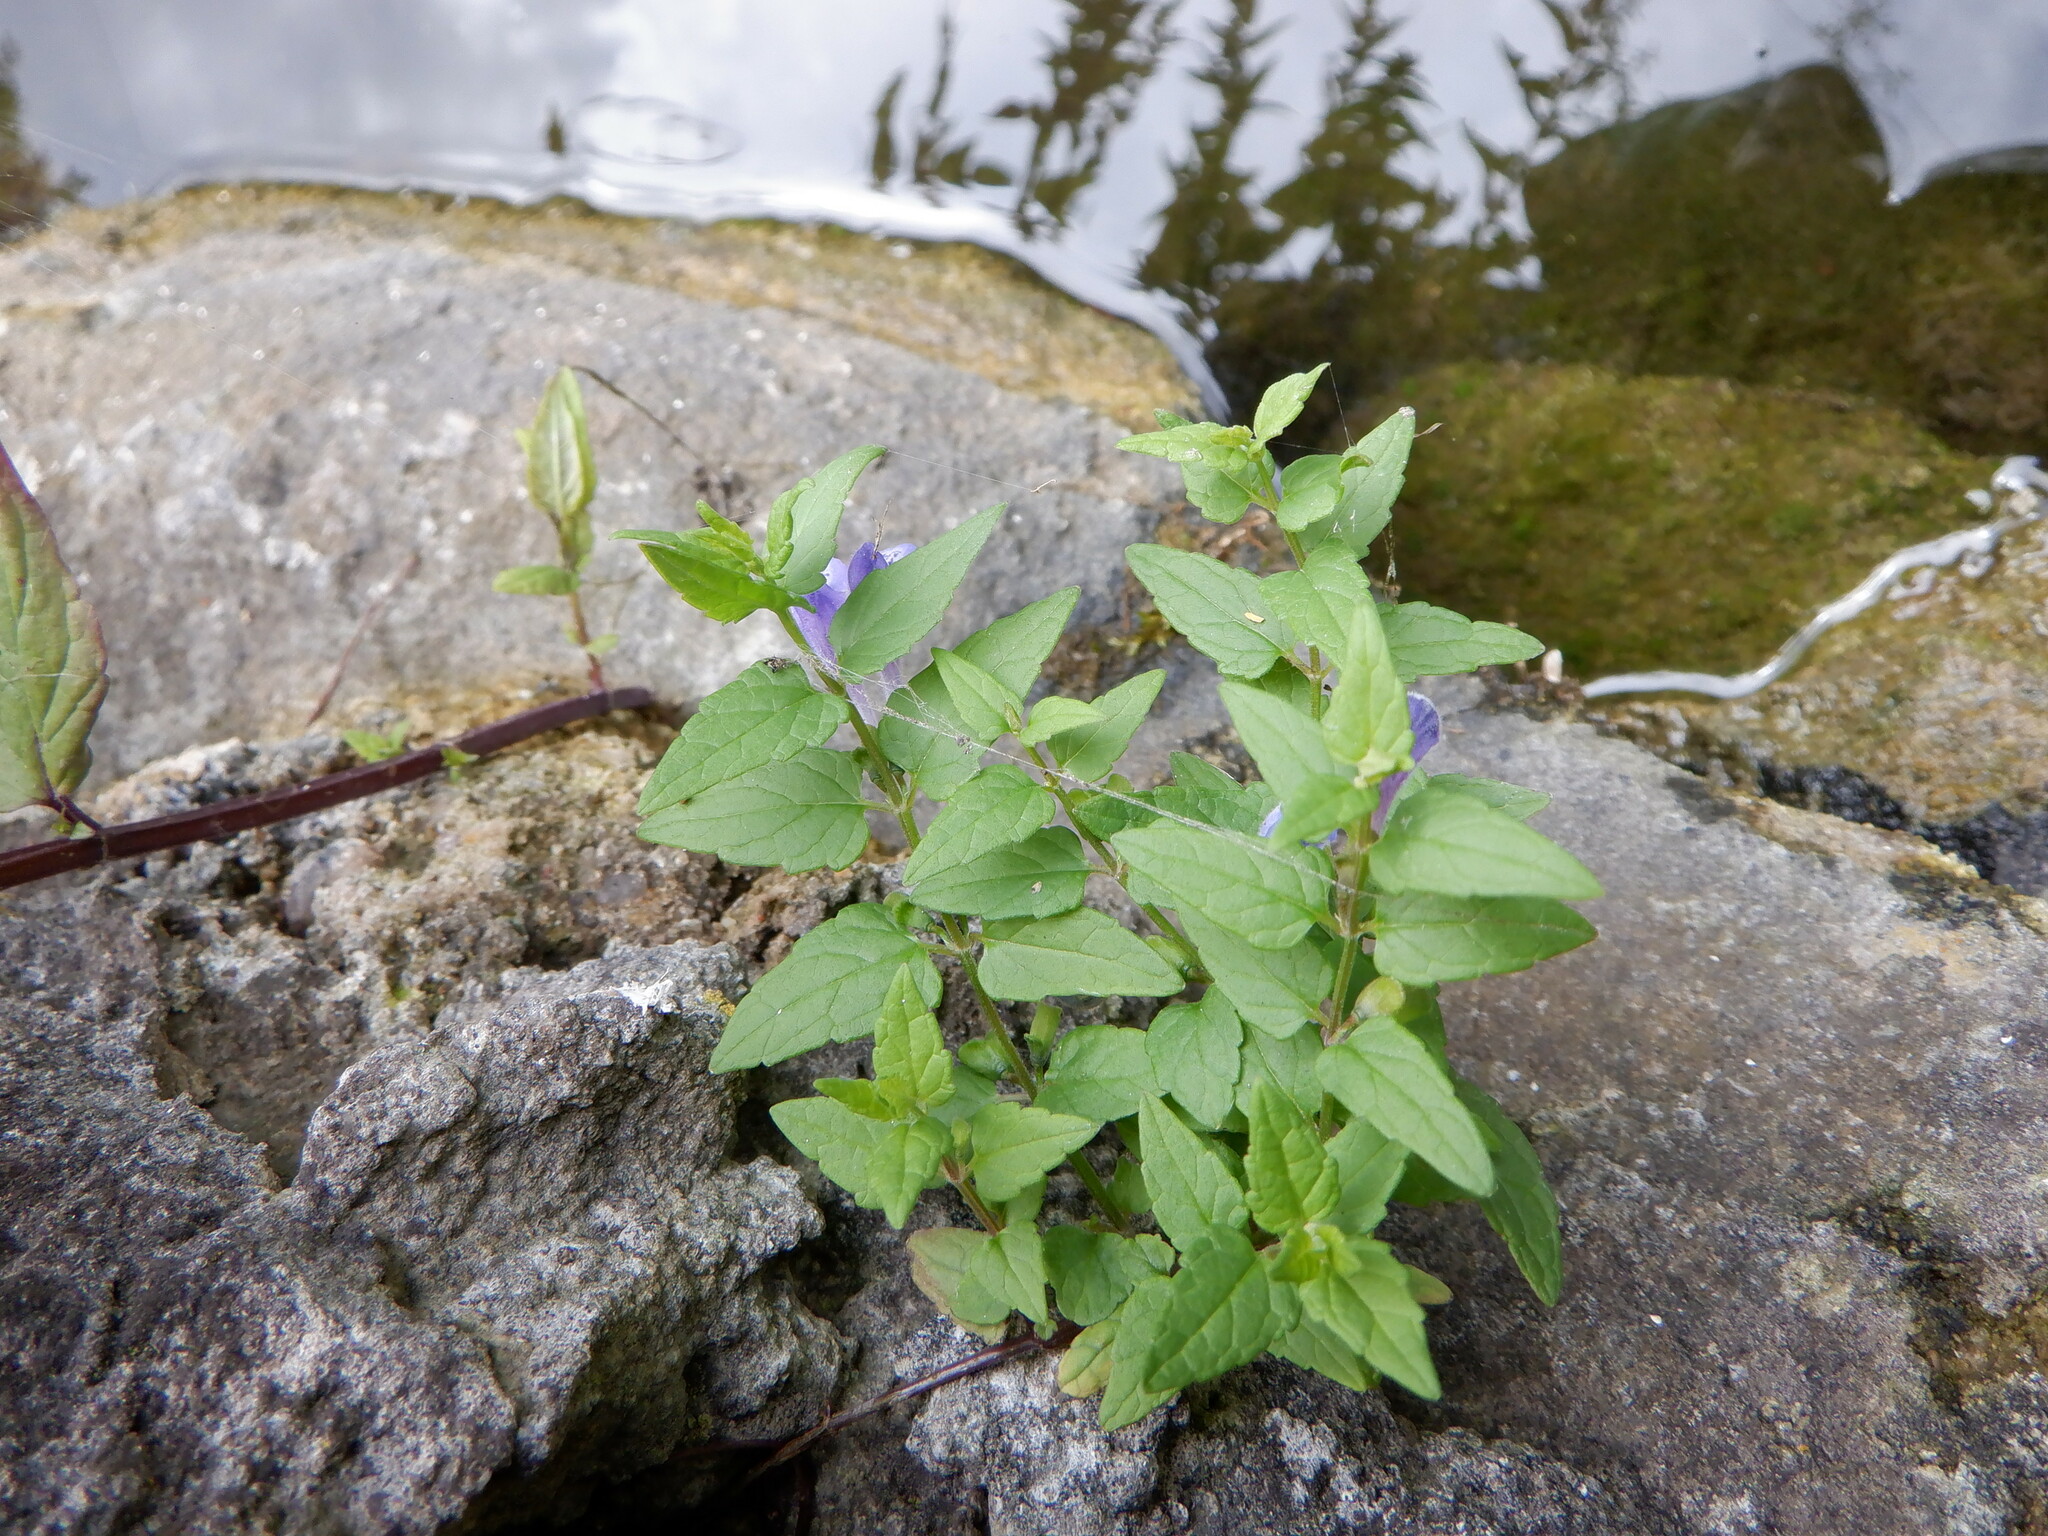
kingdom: Plantae
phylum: Tracheophyta
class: Magnoliopsida
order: Lamiales
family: Lamiaceae
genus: Scutellaria
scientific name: Scutellaria galericulata
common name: Skullcap
